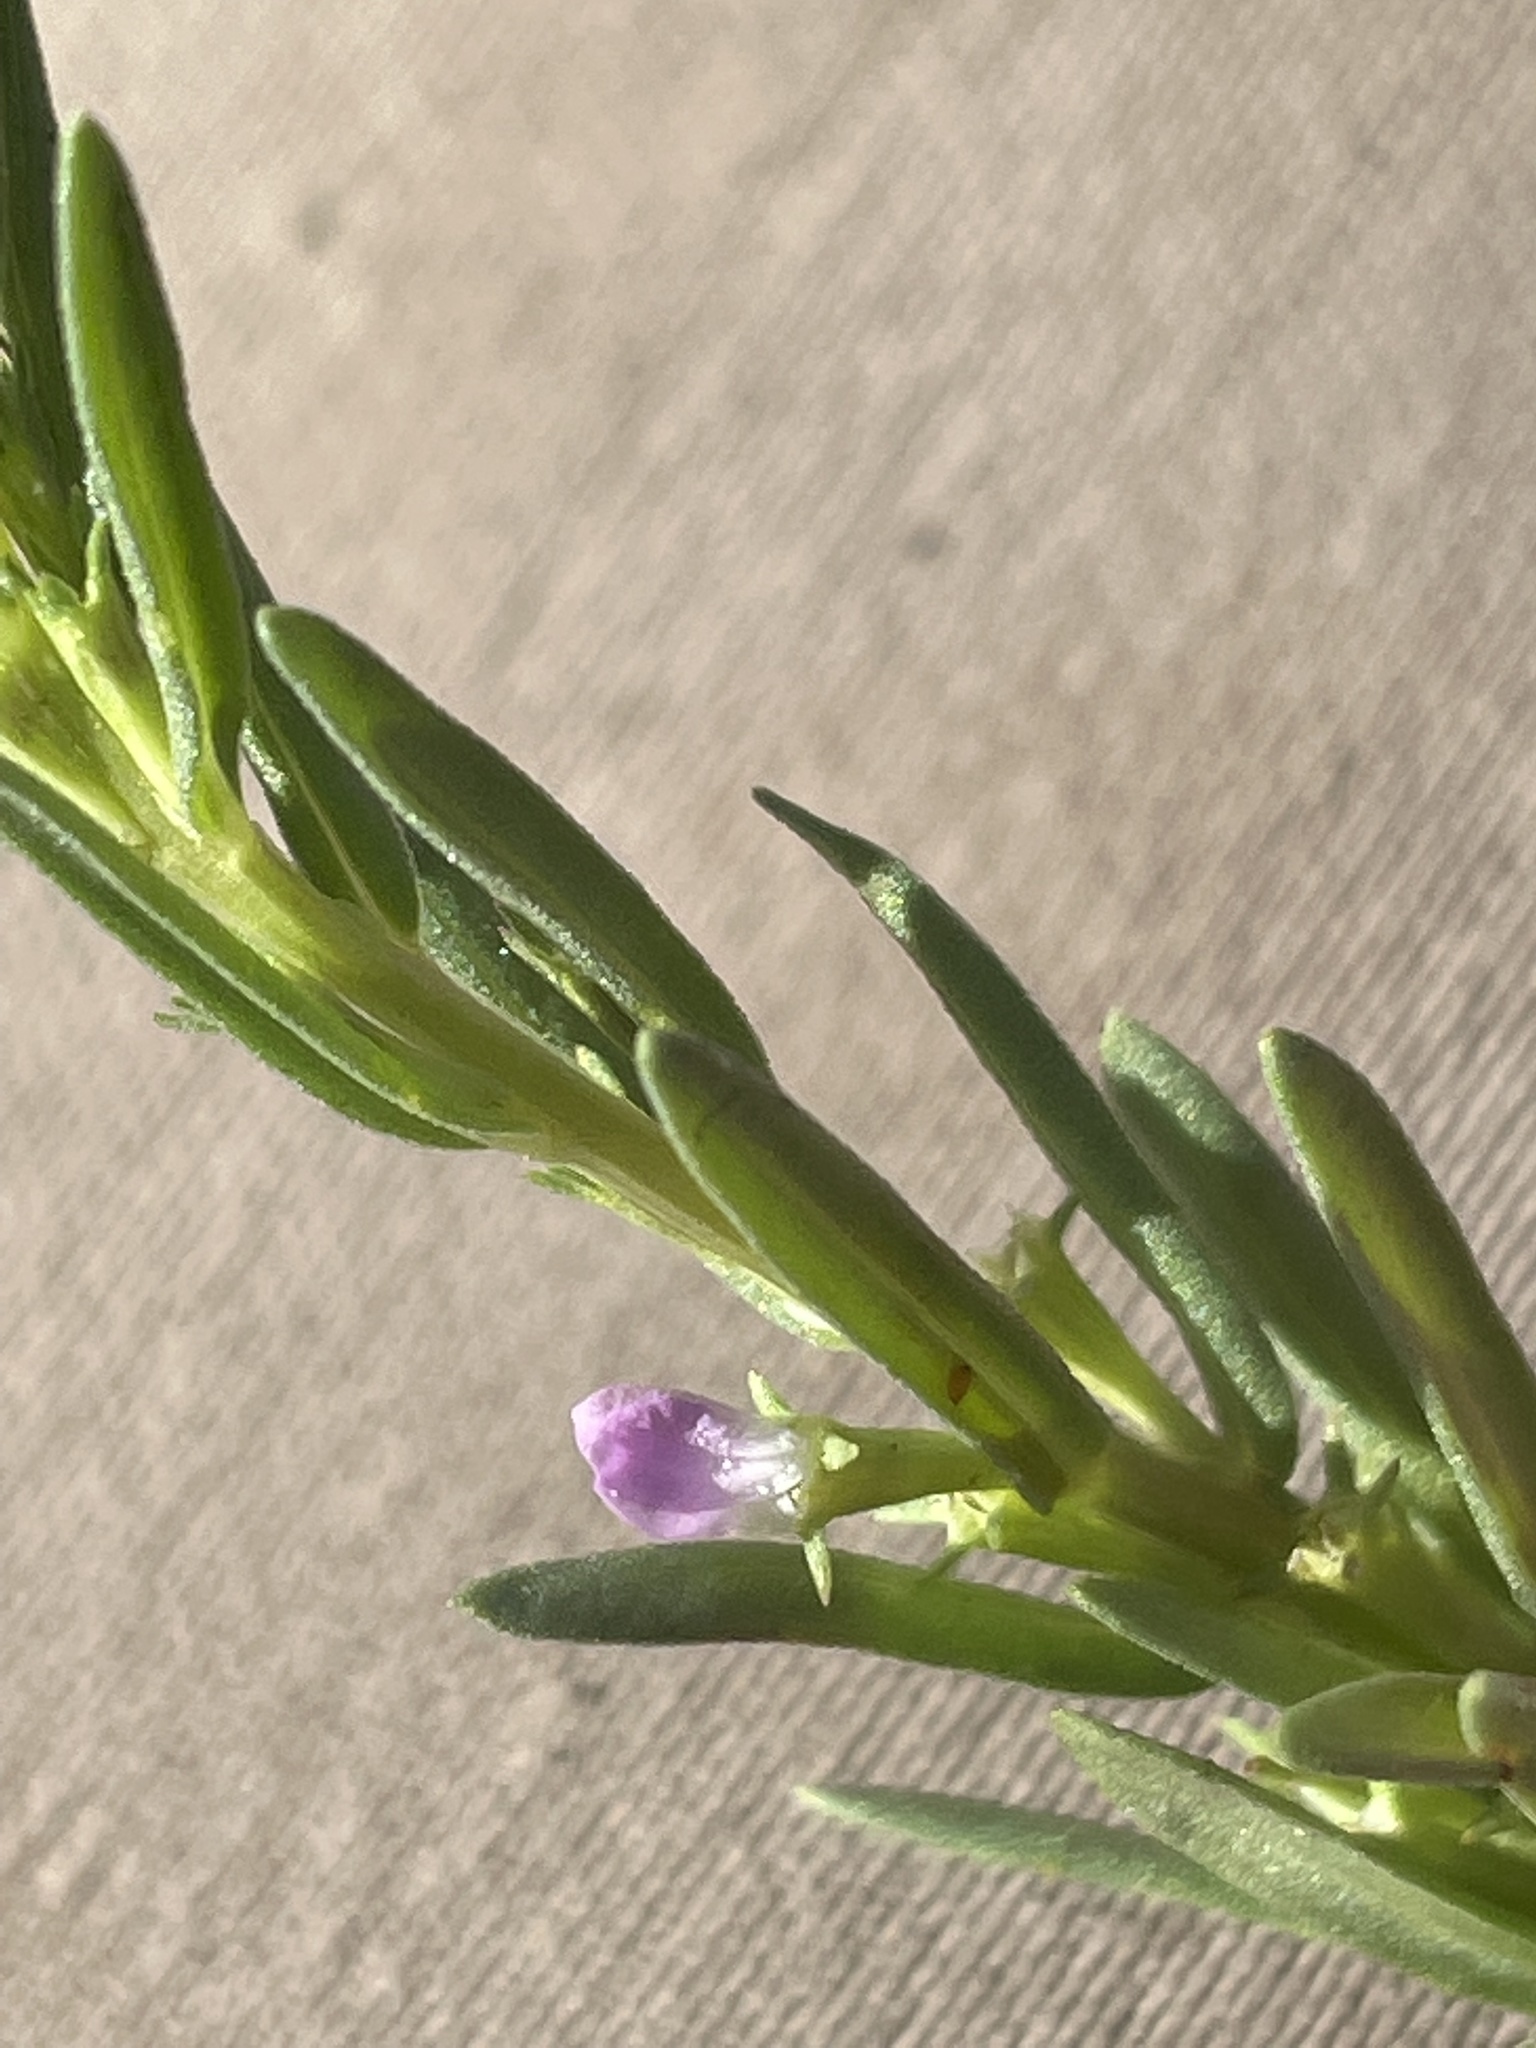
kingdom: Plantae
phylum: Tracheophyta
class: Magnoliopsida
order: Myrtales
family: Lythraceae
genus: Lythrum
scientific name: Lythrum hyssopifolia
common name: Grass-poly
